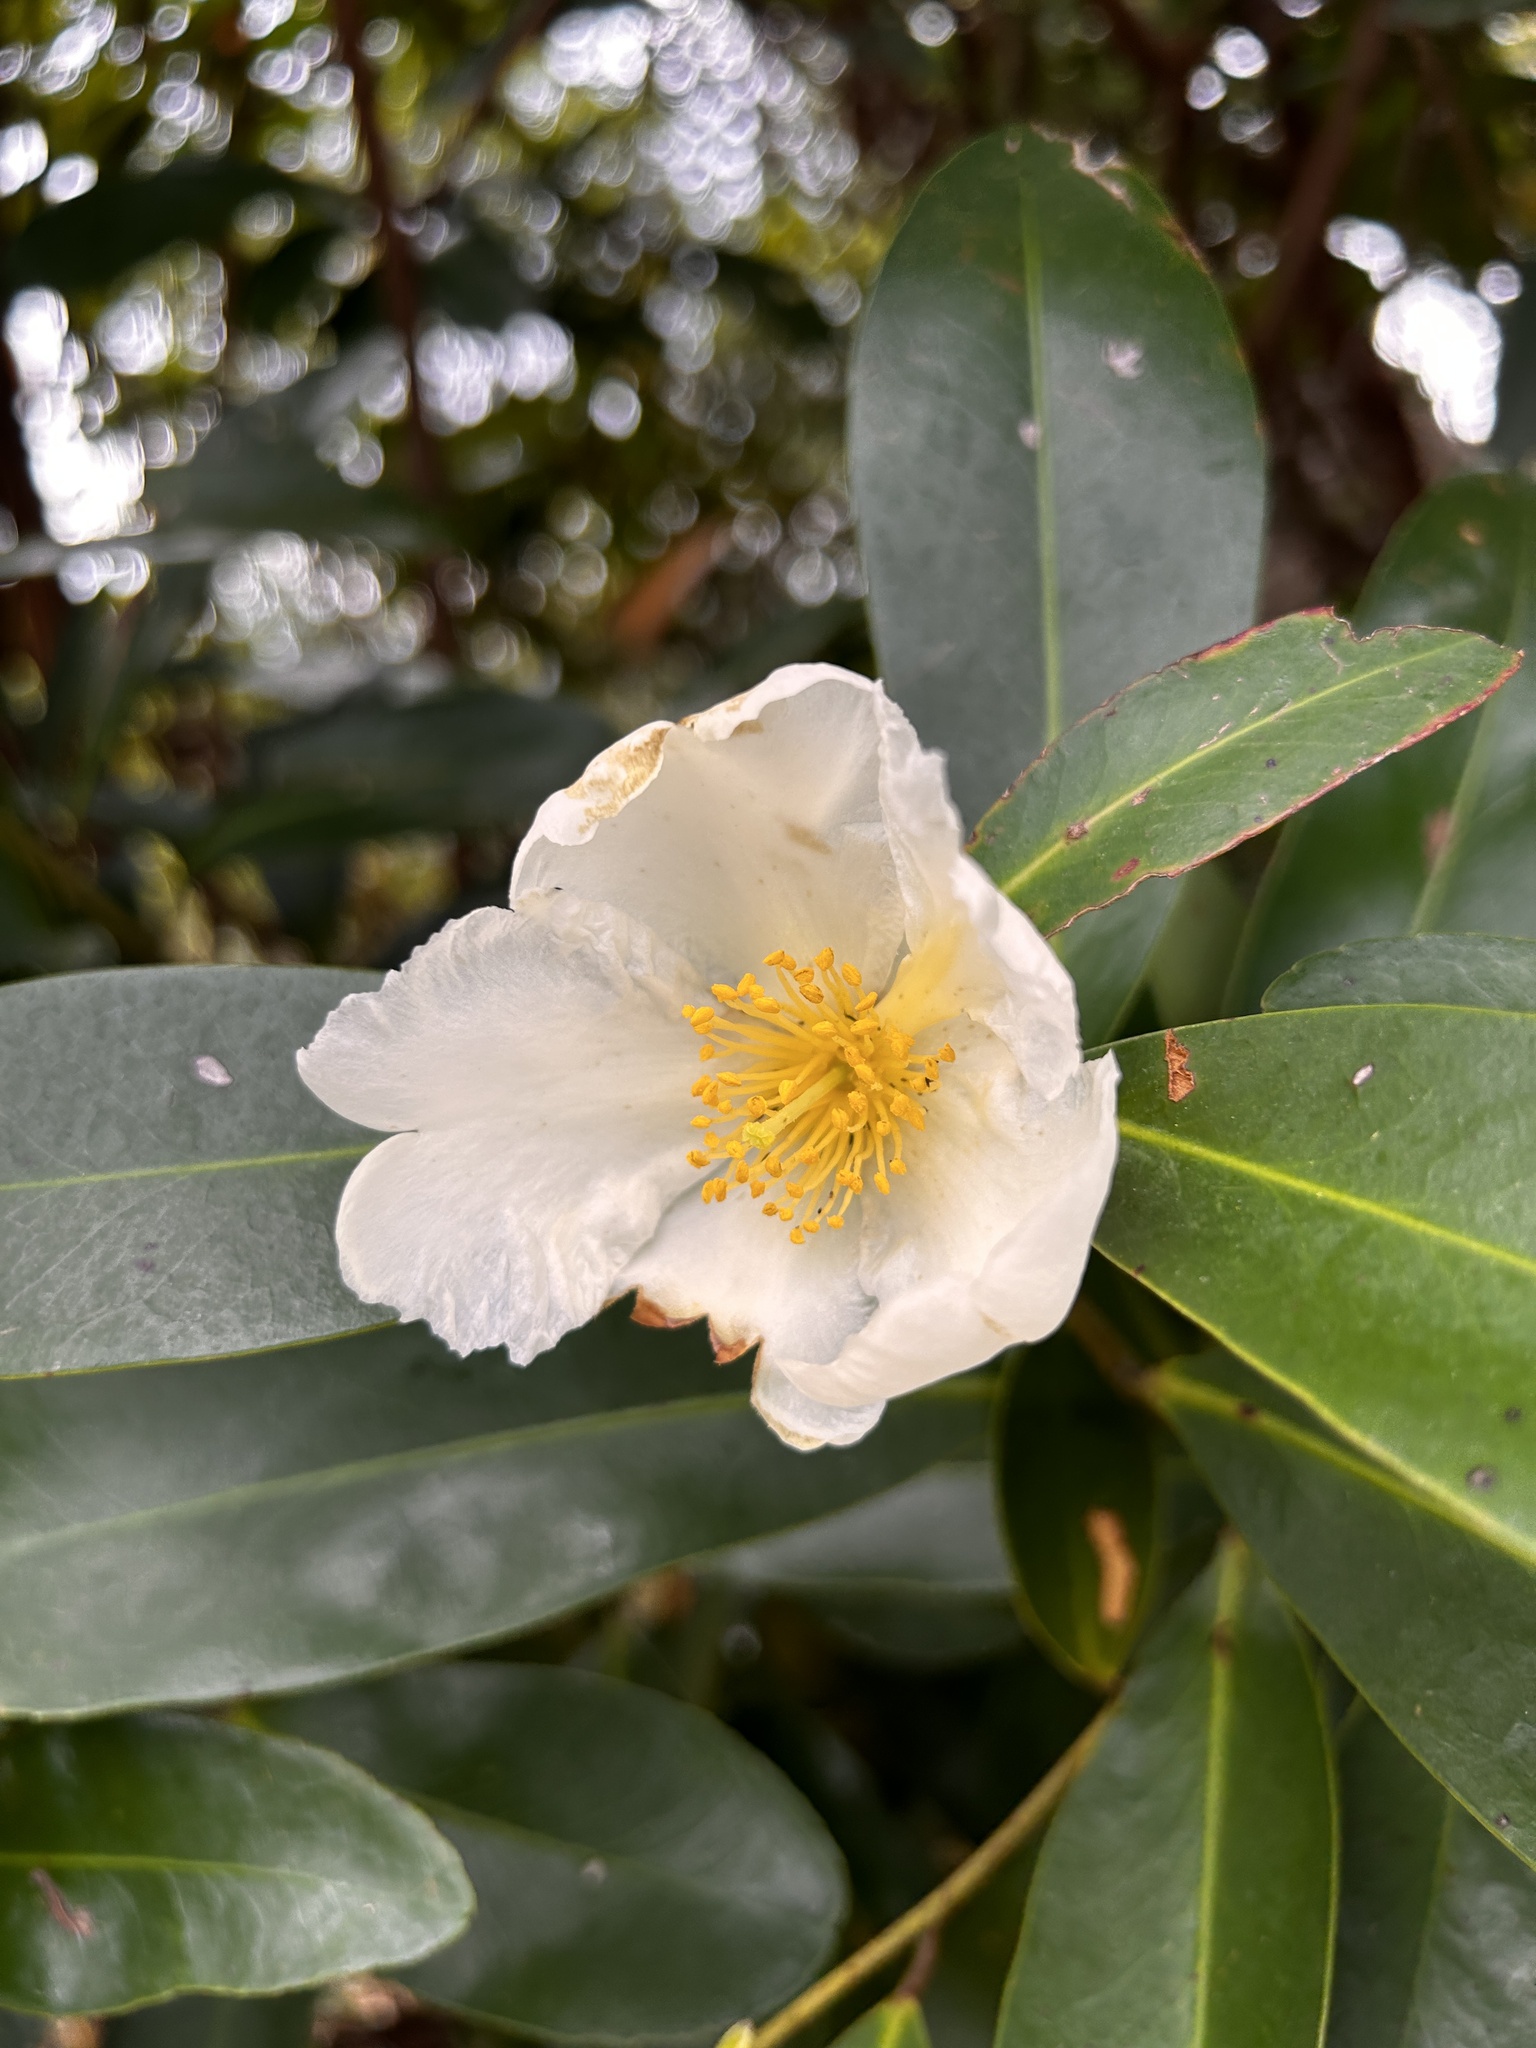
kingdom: Plantae
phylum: Tracheophyta
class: Magnoliopsida
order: Ericales
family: Theaceae
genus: Polyspora
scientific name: Polyspora axillaris
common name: Fried egg tree
